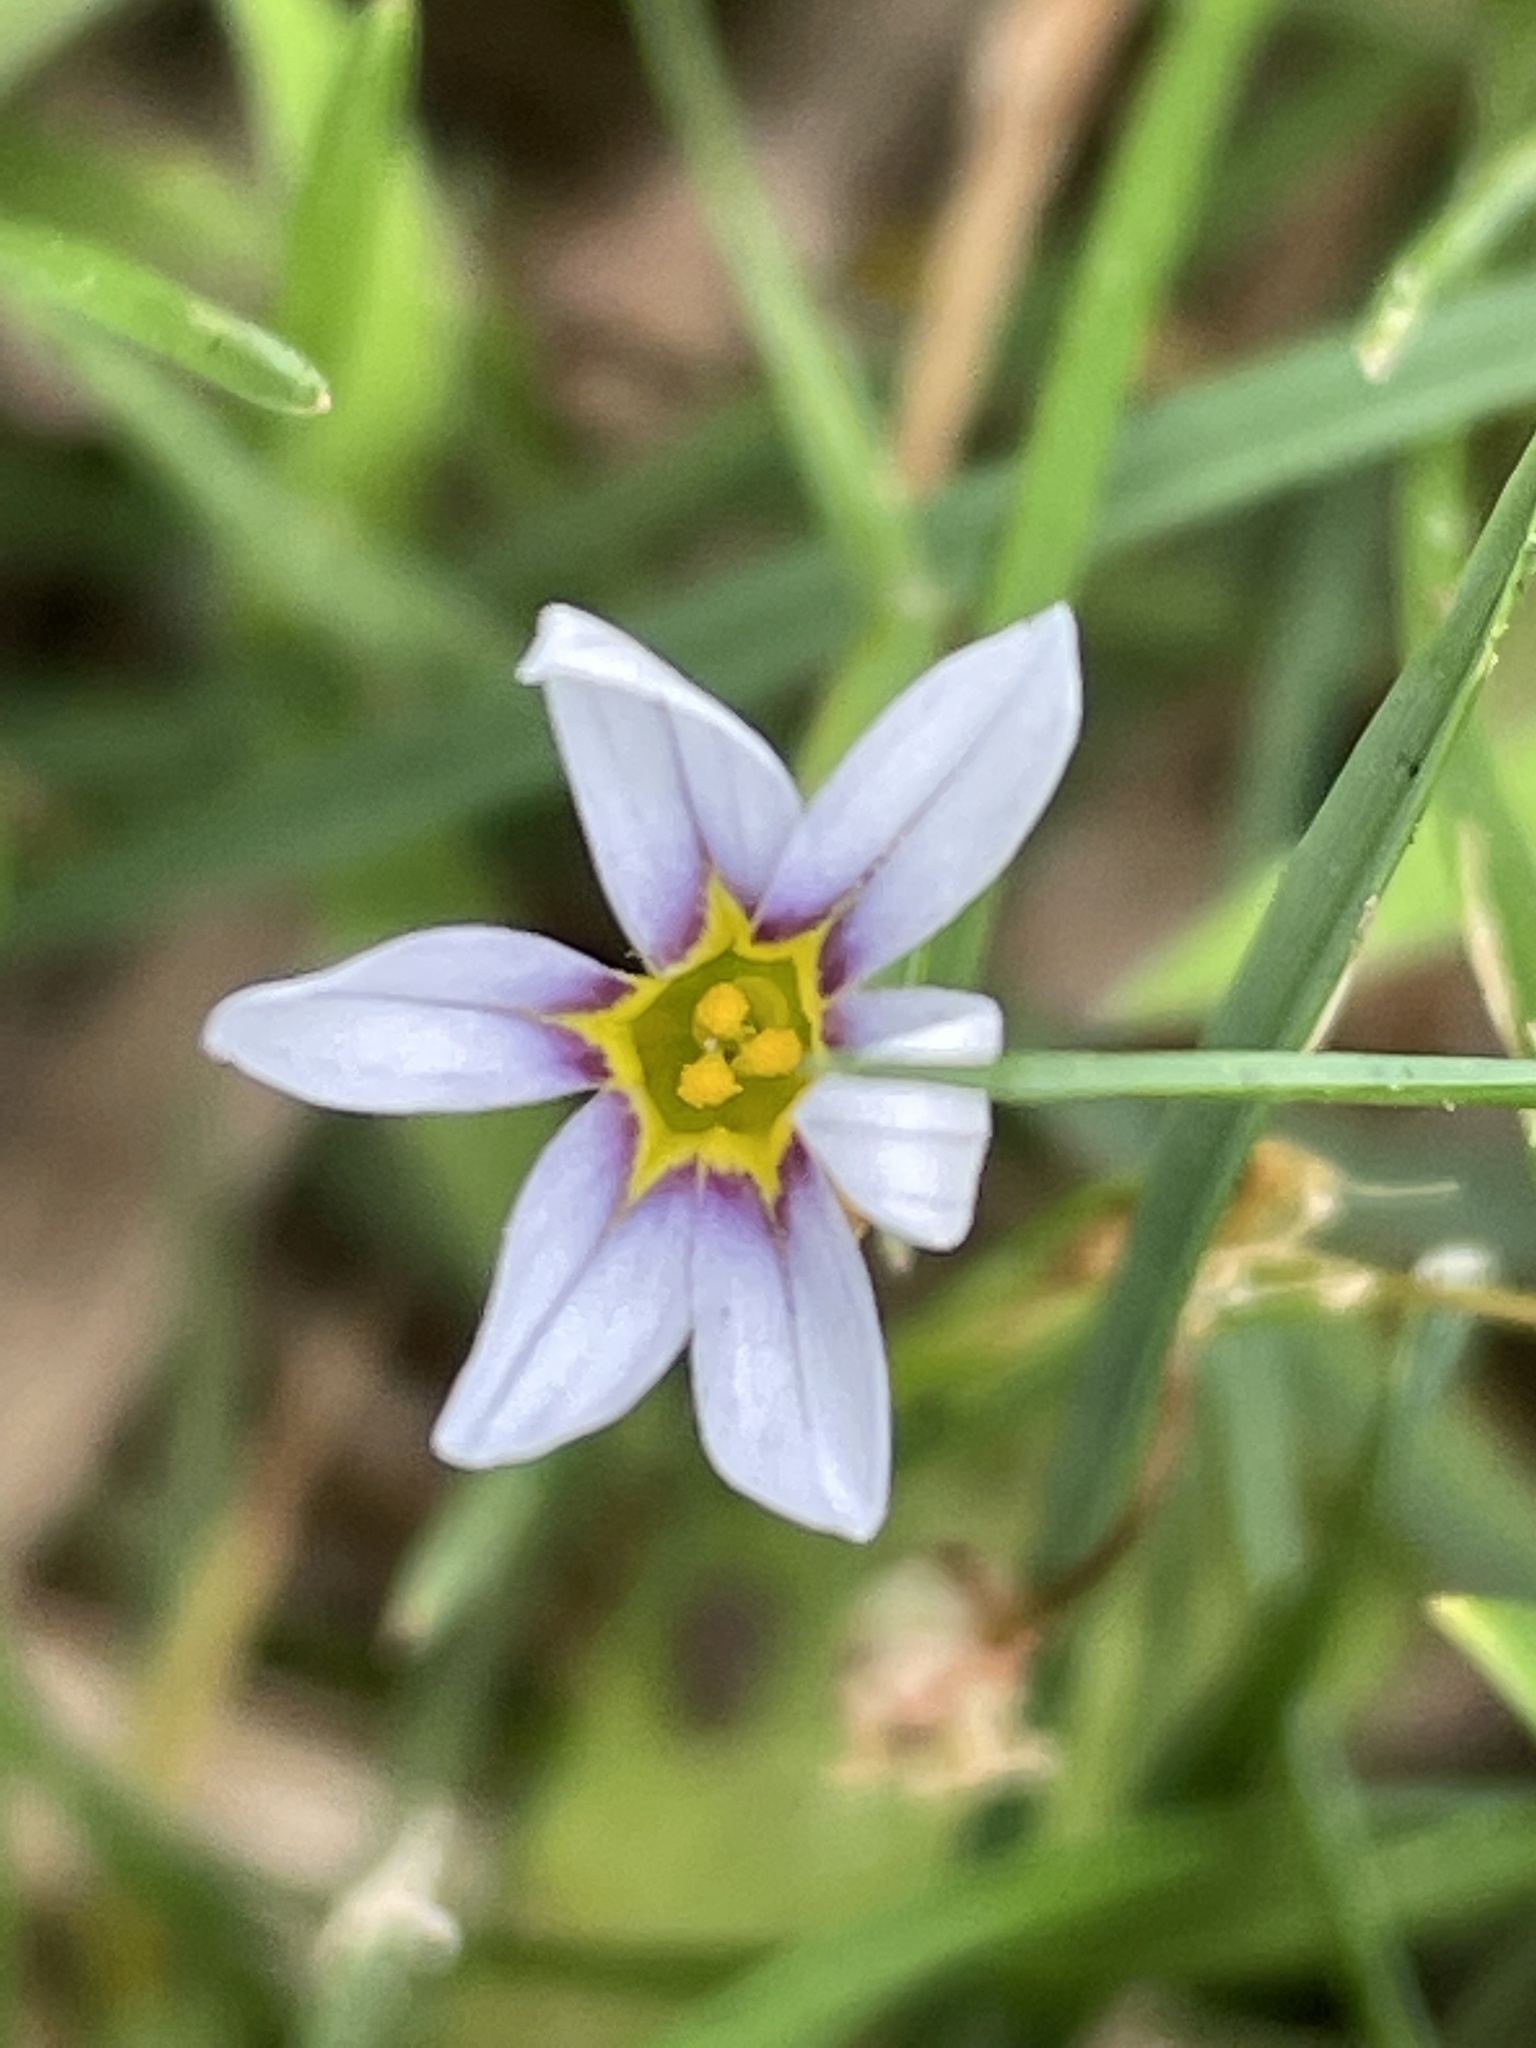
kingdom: Plantae
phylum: Tracheophyta
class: Liliopsida
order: Asparagales
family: Iridaceae
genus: Sisyrinchium
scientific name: Sisyrinchium micranthum
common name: Bermuda pigroot
